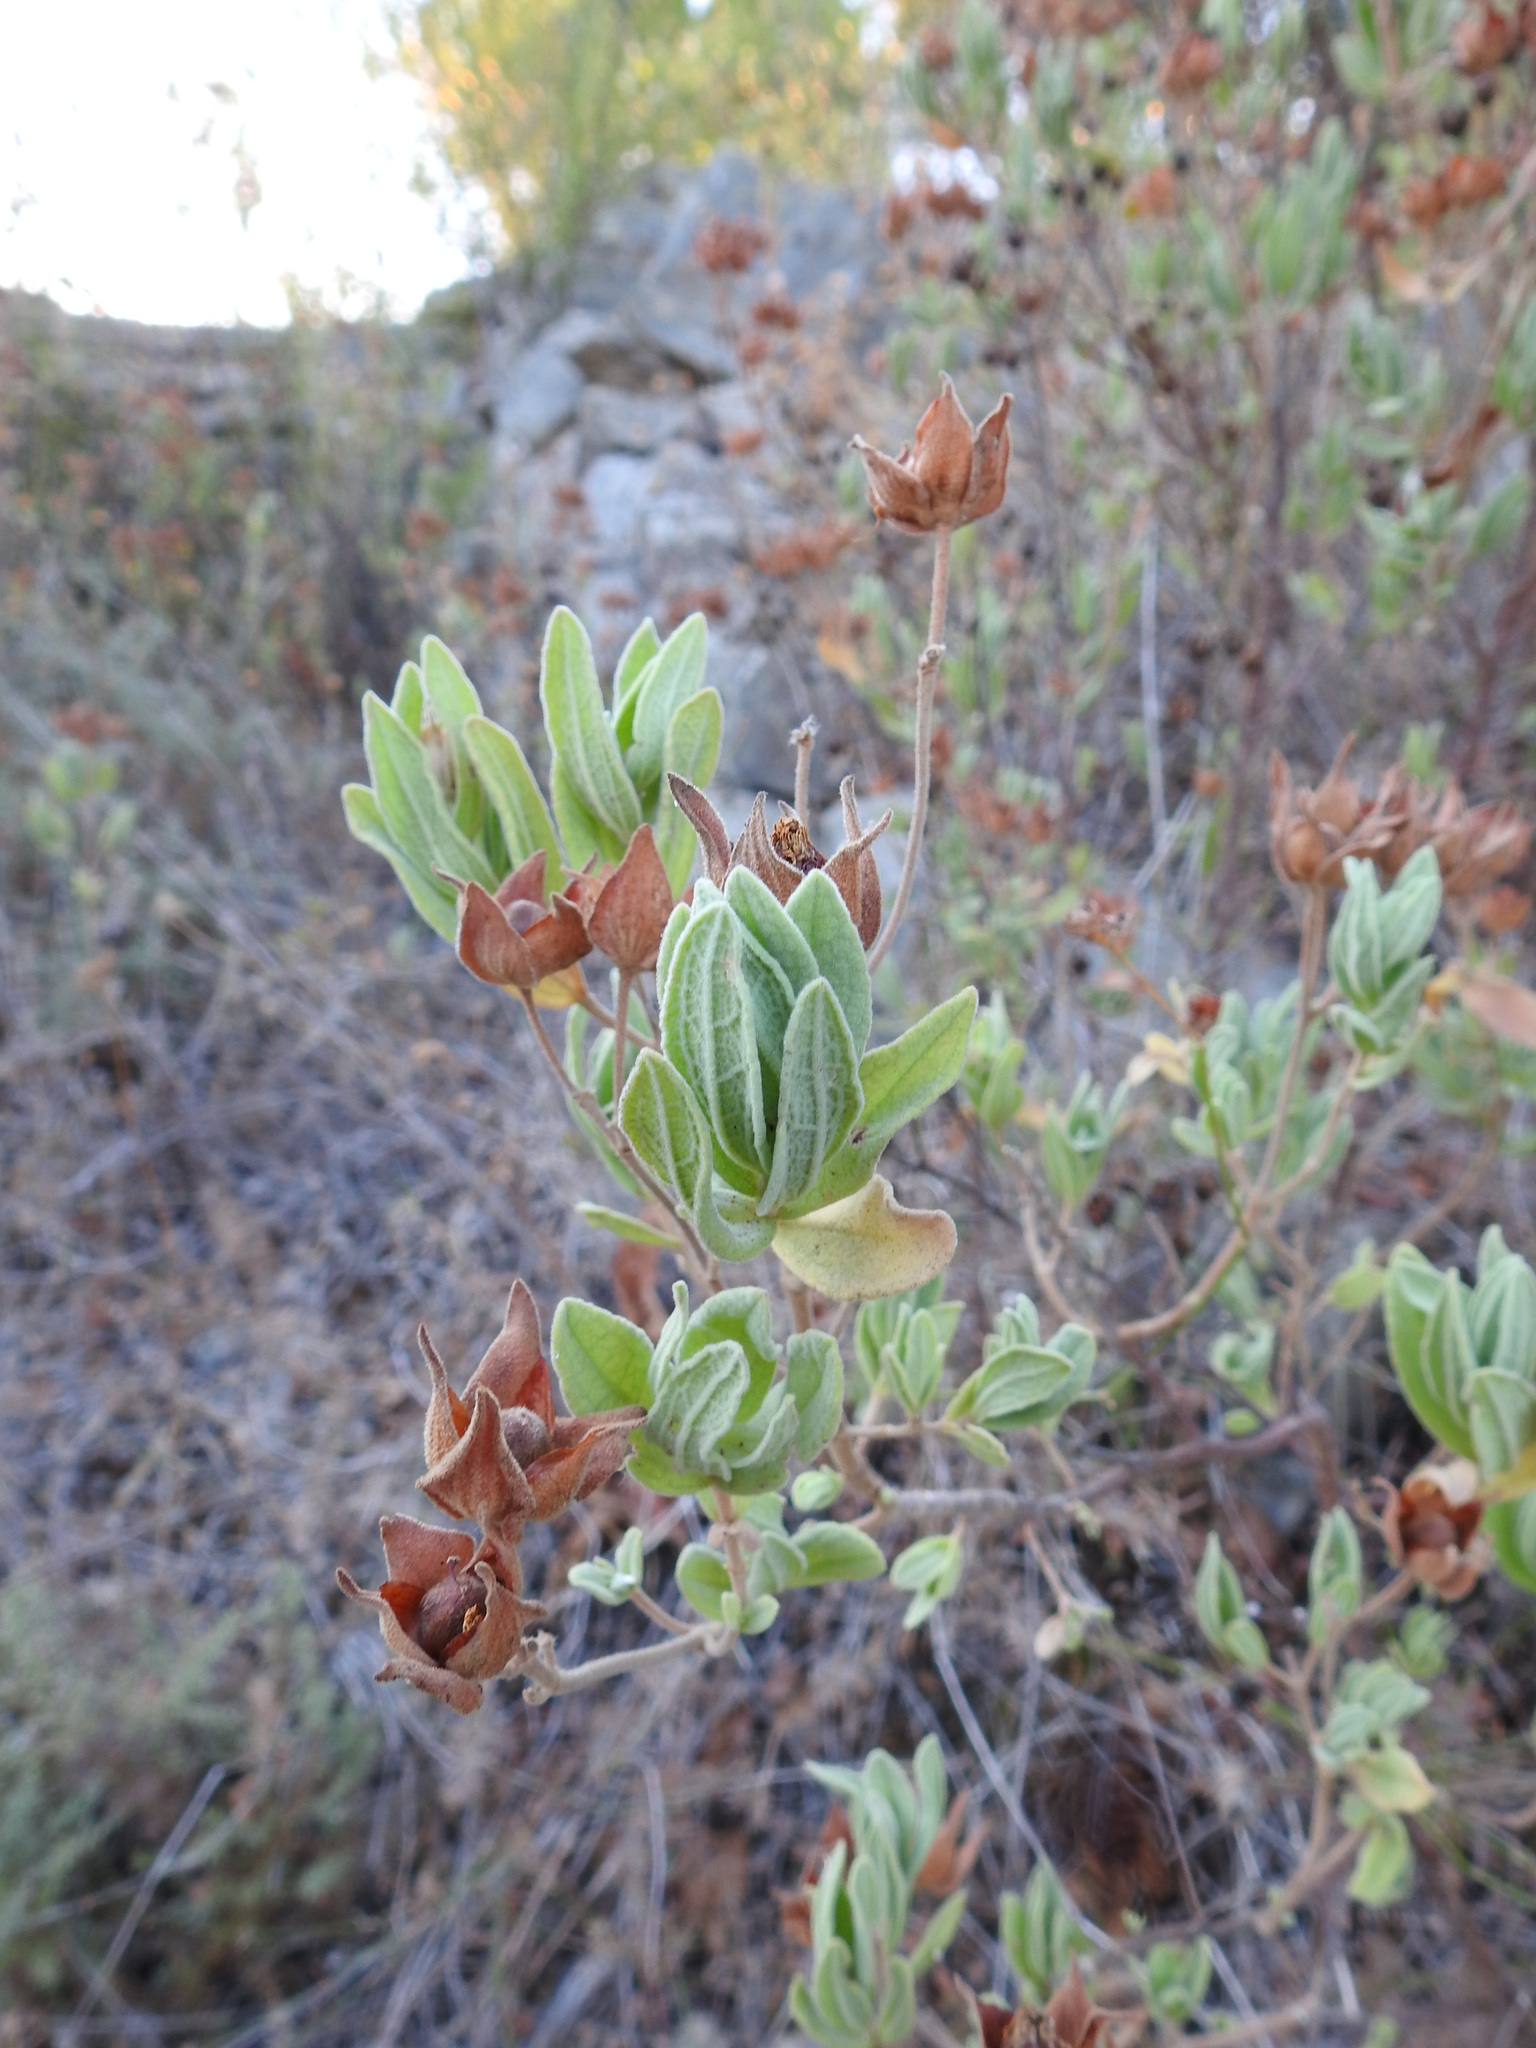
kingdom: Plantae
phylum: Tracheophyta
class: Magnoliopsida
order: Malvales
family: Cistaceae
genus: Cistus
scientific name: Cistus albidus
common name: White-leaf rock-rose
